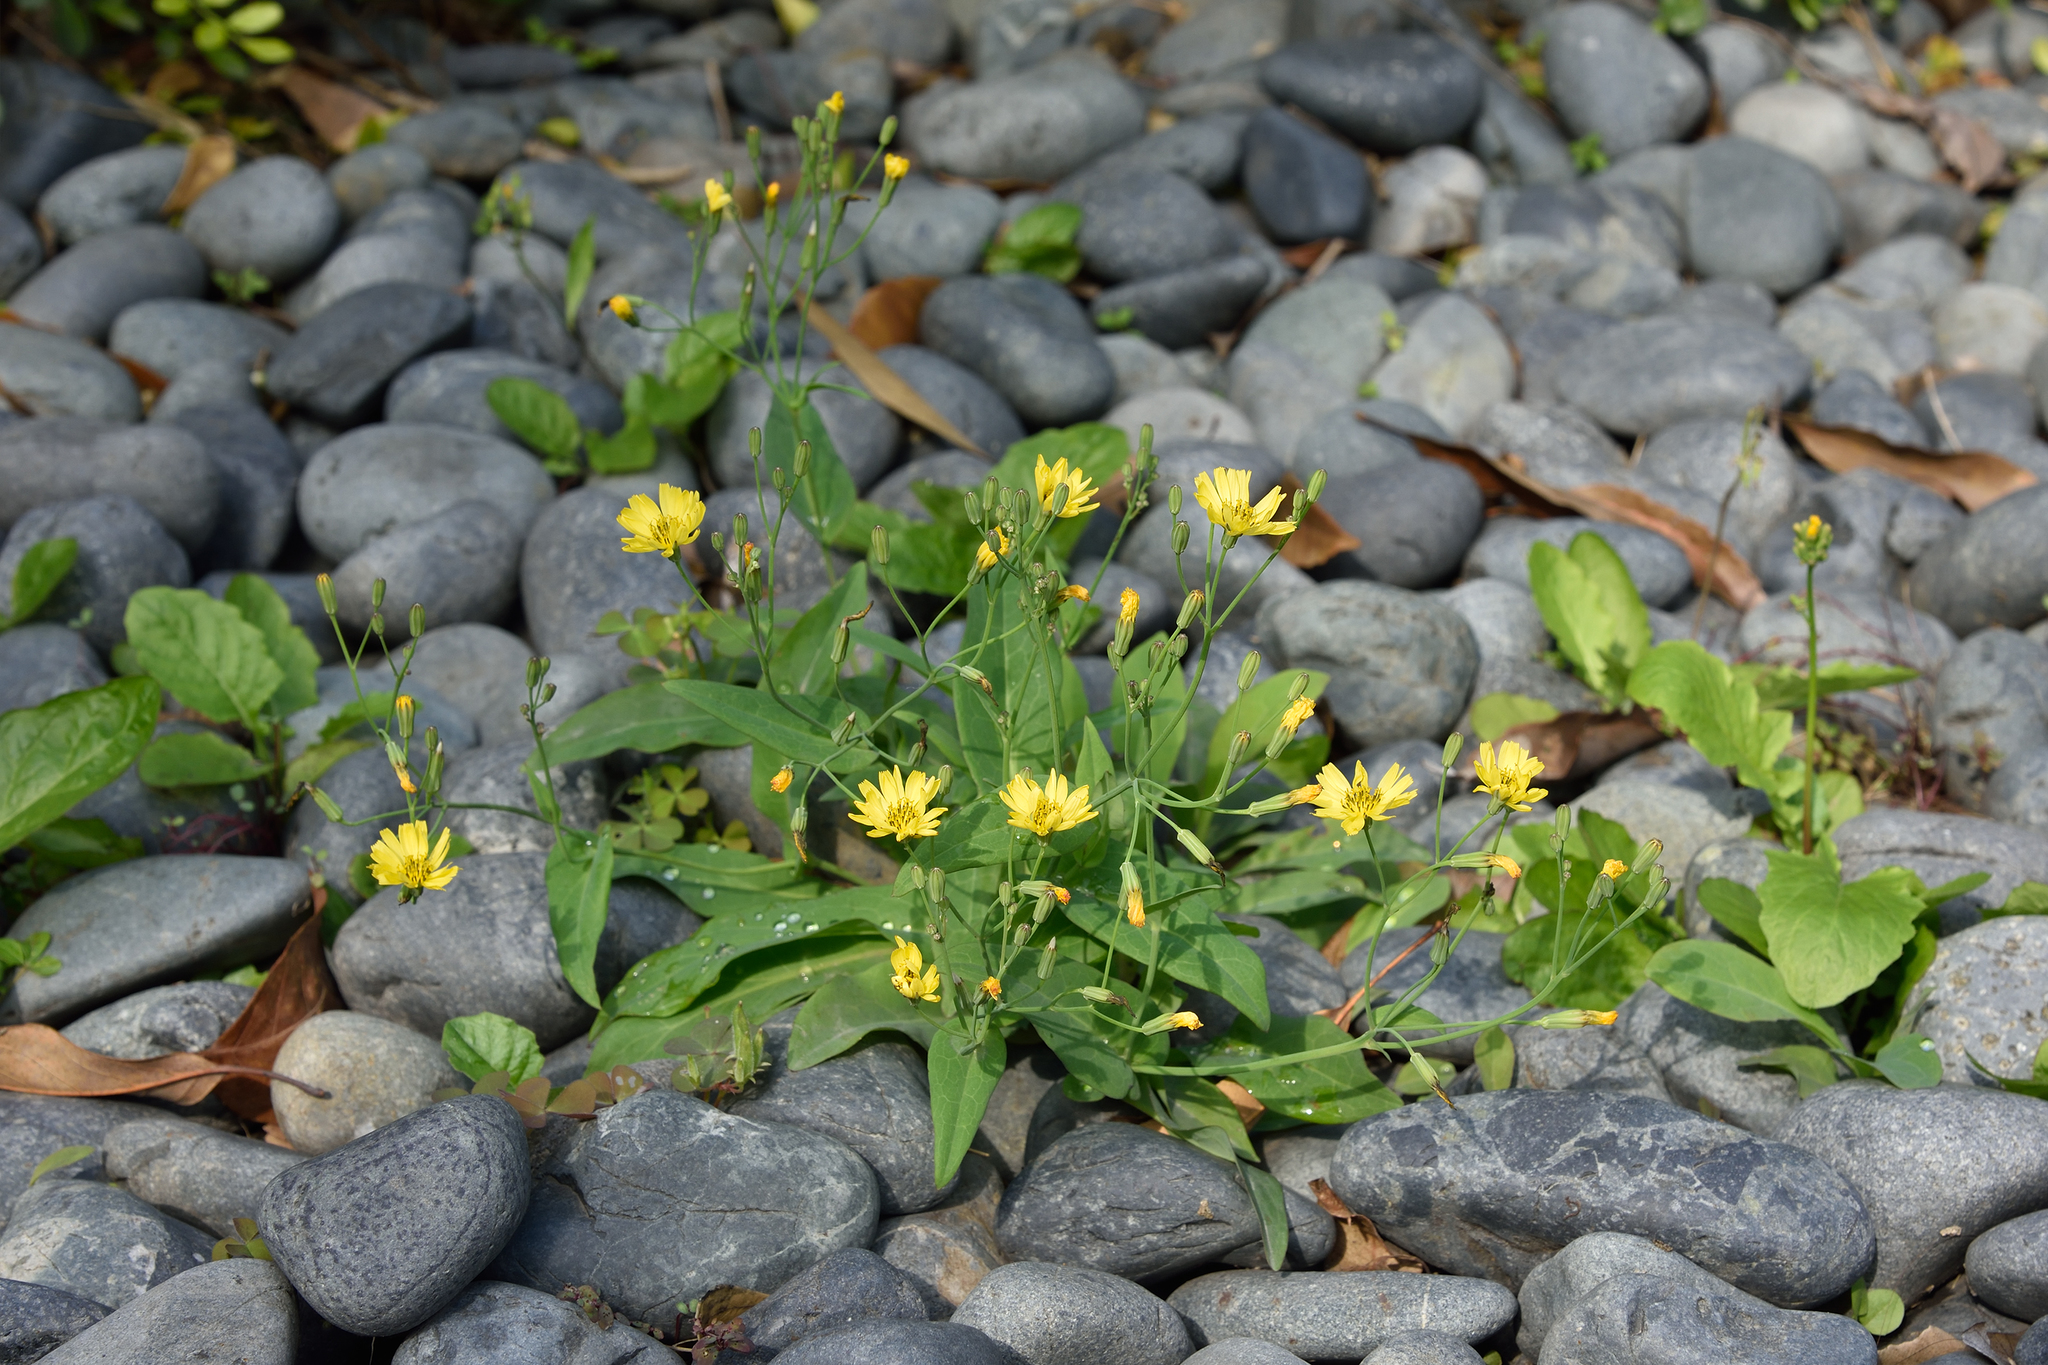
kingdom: Plantae
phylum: Tracheophyta
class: Magnoliopsida
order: Asterales
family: Asteraceae
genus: Ixeris
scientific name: Ixeris chinensis
